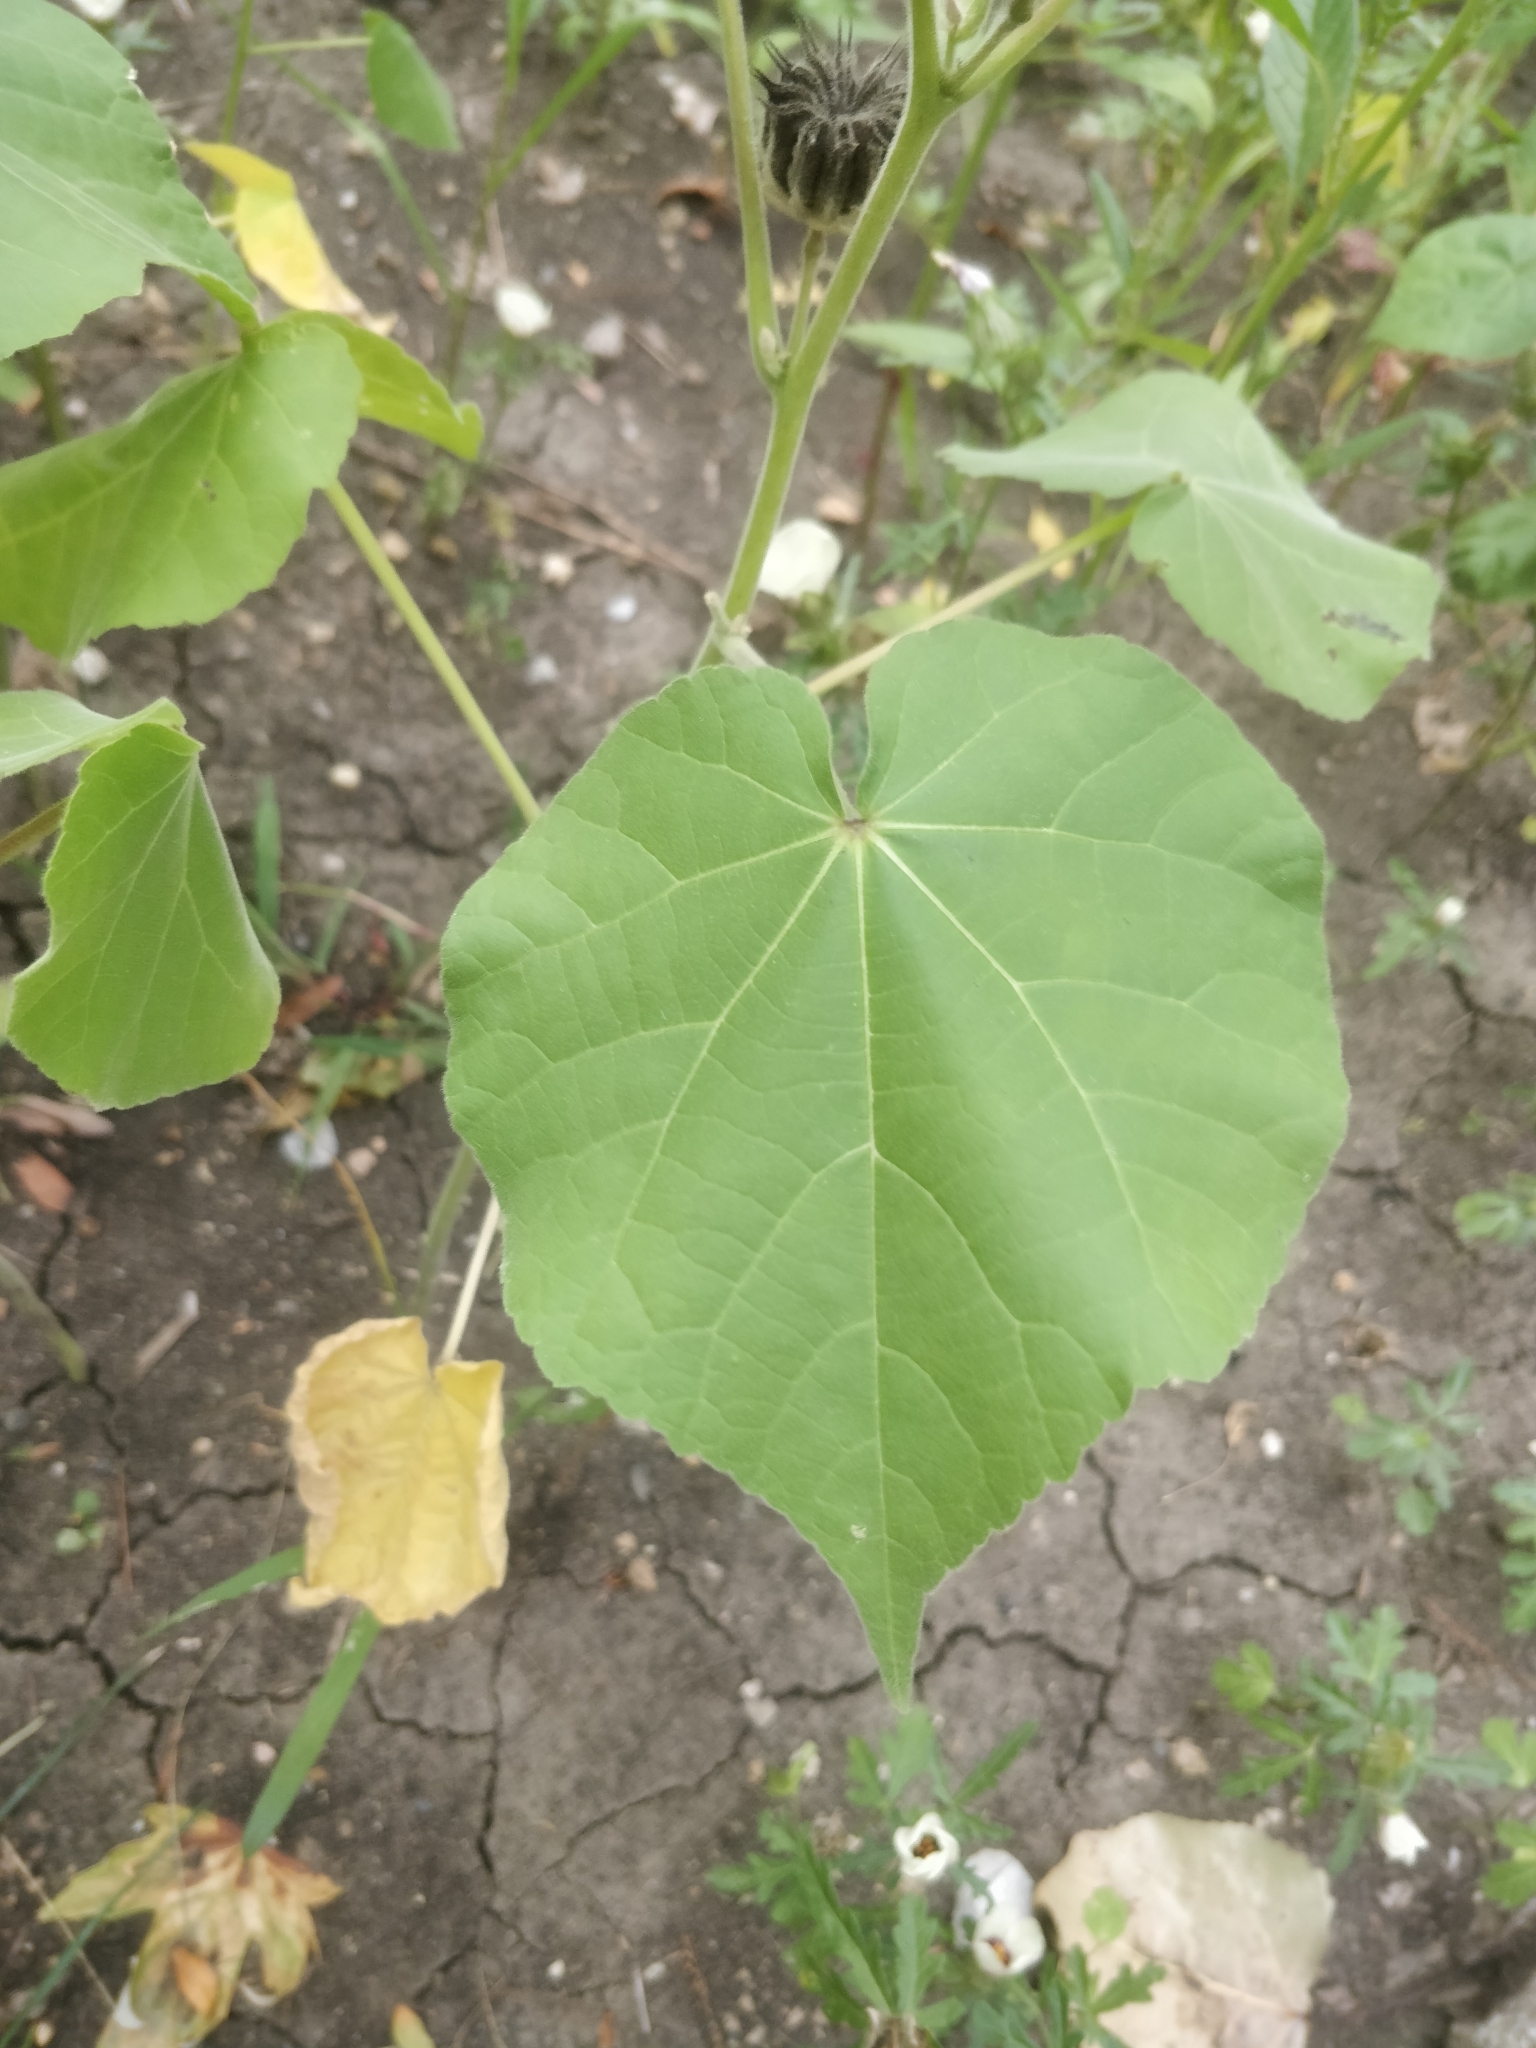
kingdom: Plantae
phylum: Tracheophyta
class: Magnoliopsida
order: Malvales
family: Malvaceae
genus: Abutilon
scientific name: Abutilon theophrasti
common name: Velvetleaf
